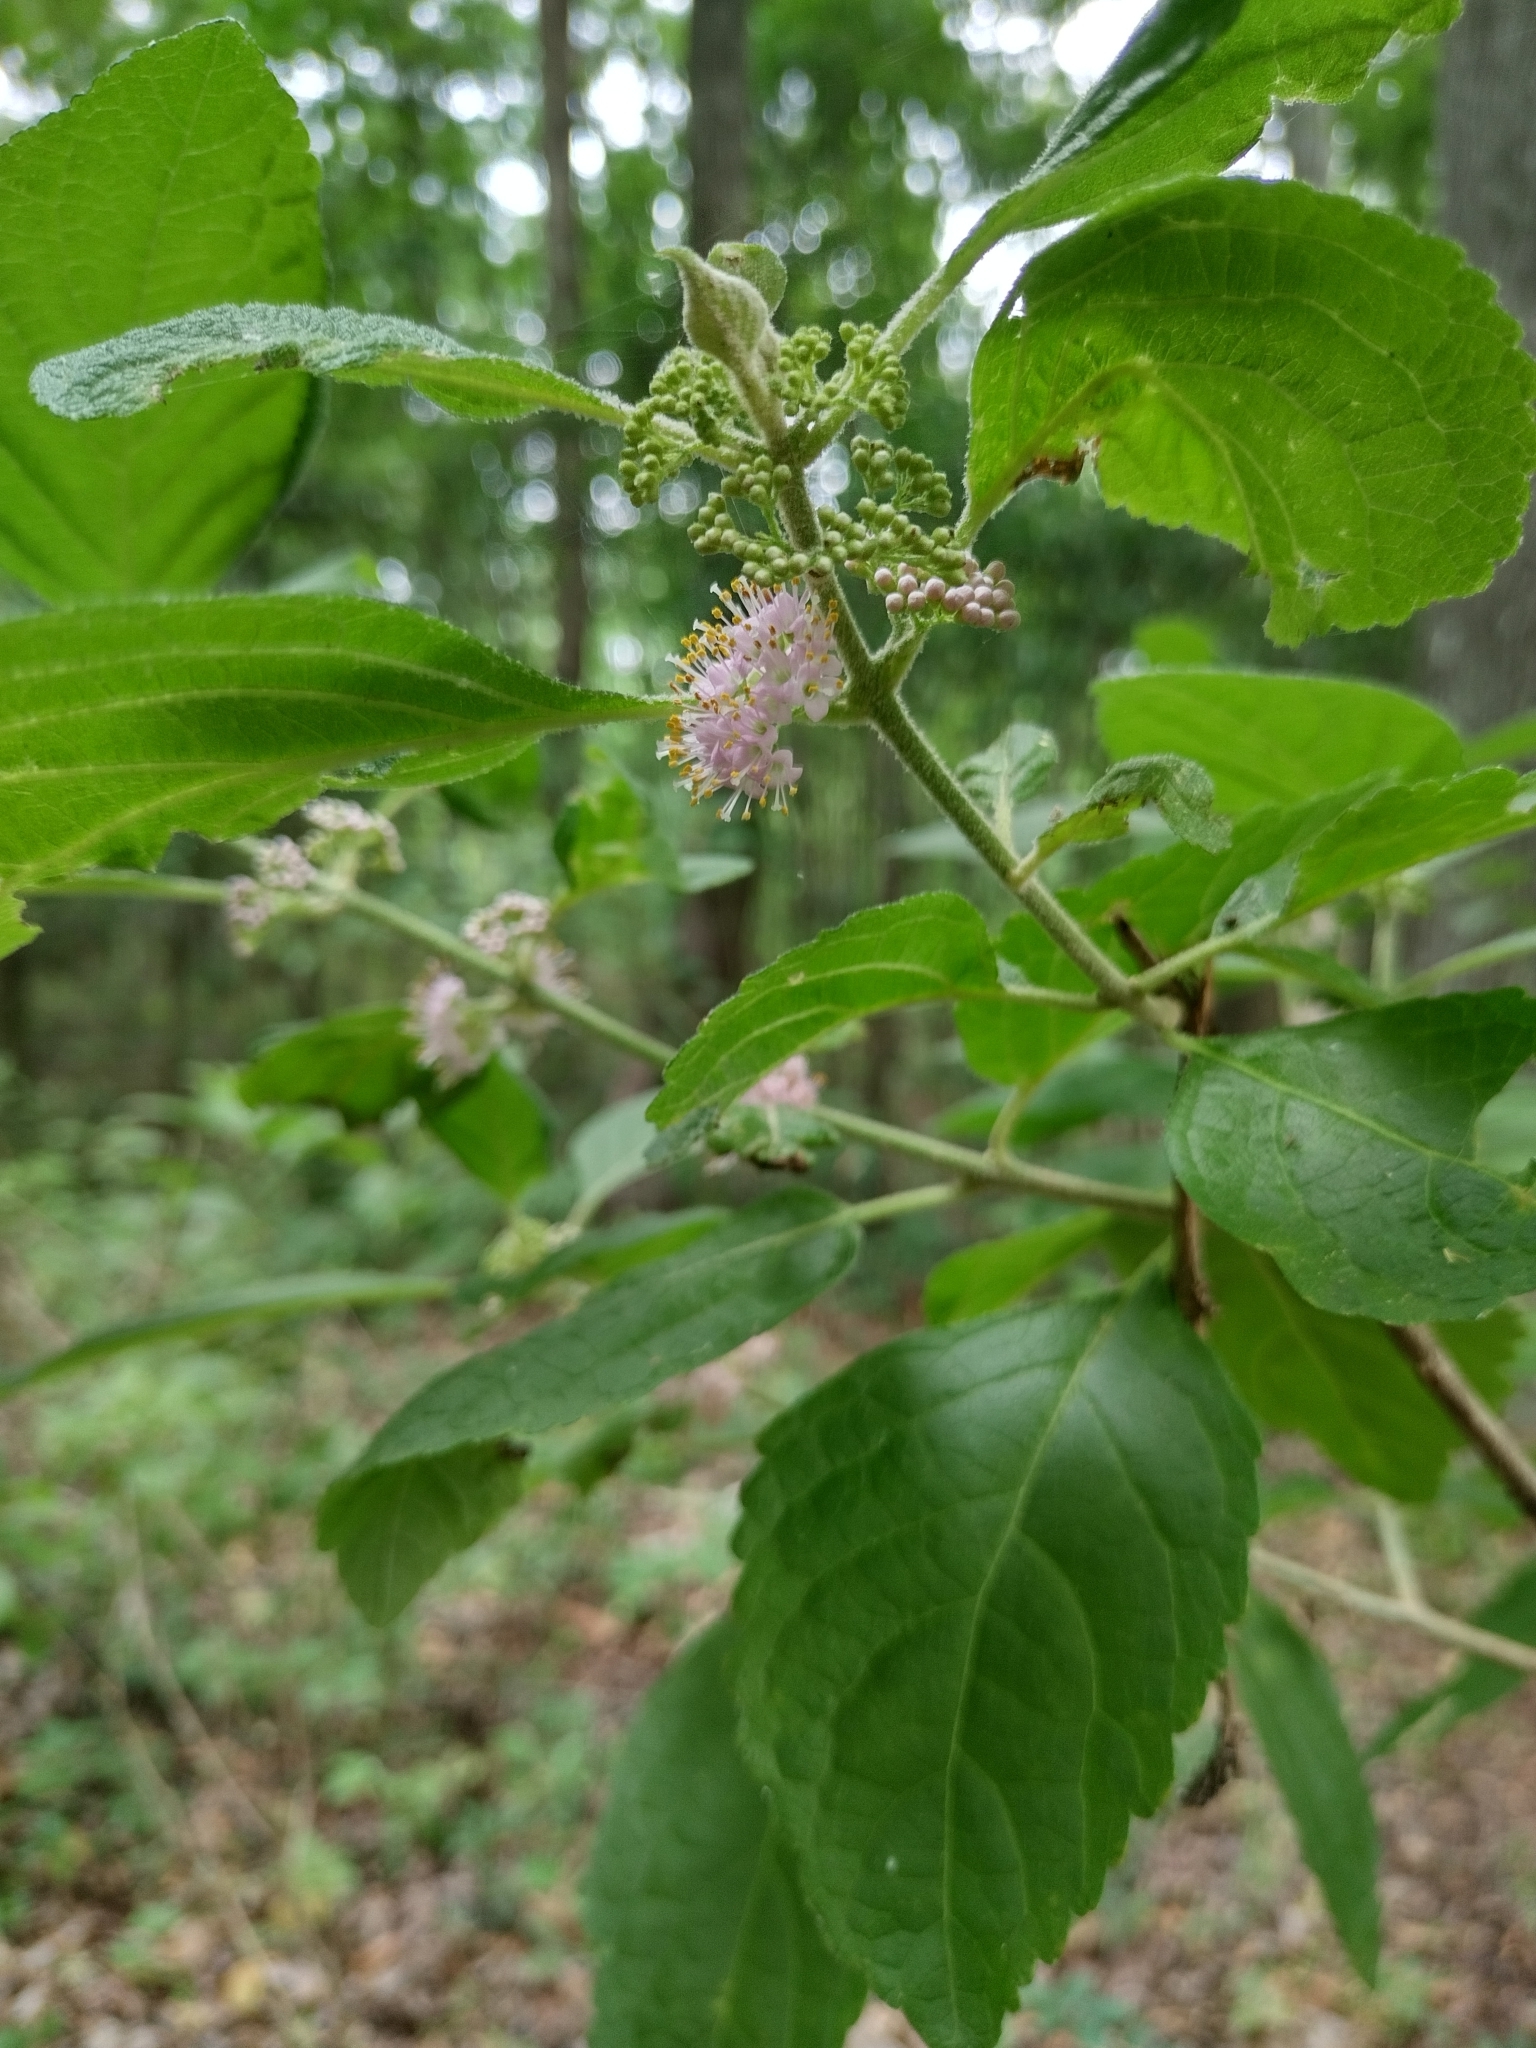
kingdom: Plantae
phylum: Tracheophyta
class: Magnoliopsida
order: Lamiales
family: Lamiaceae
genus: Callicarpa
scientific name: Callicarpa americana
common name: American beautyberry
